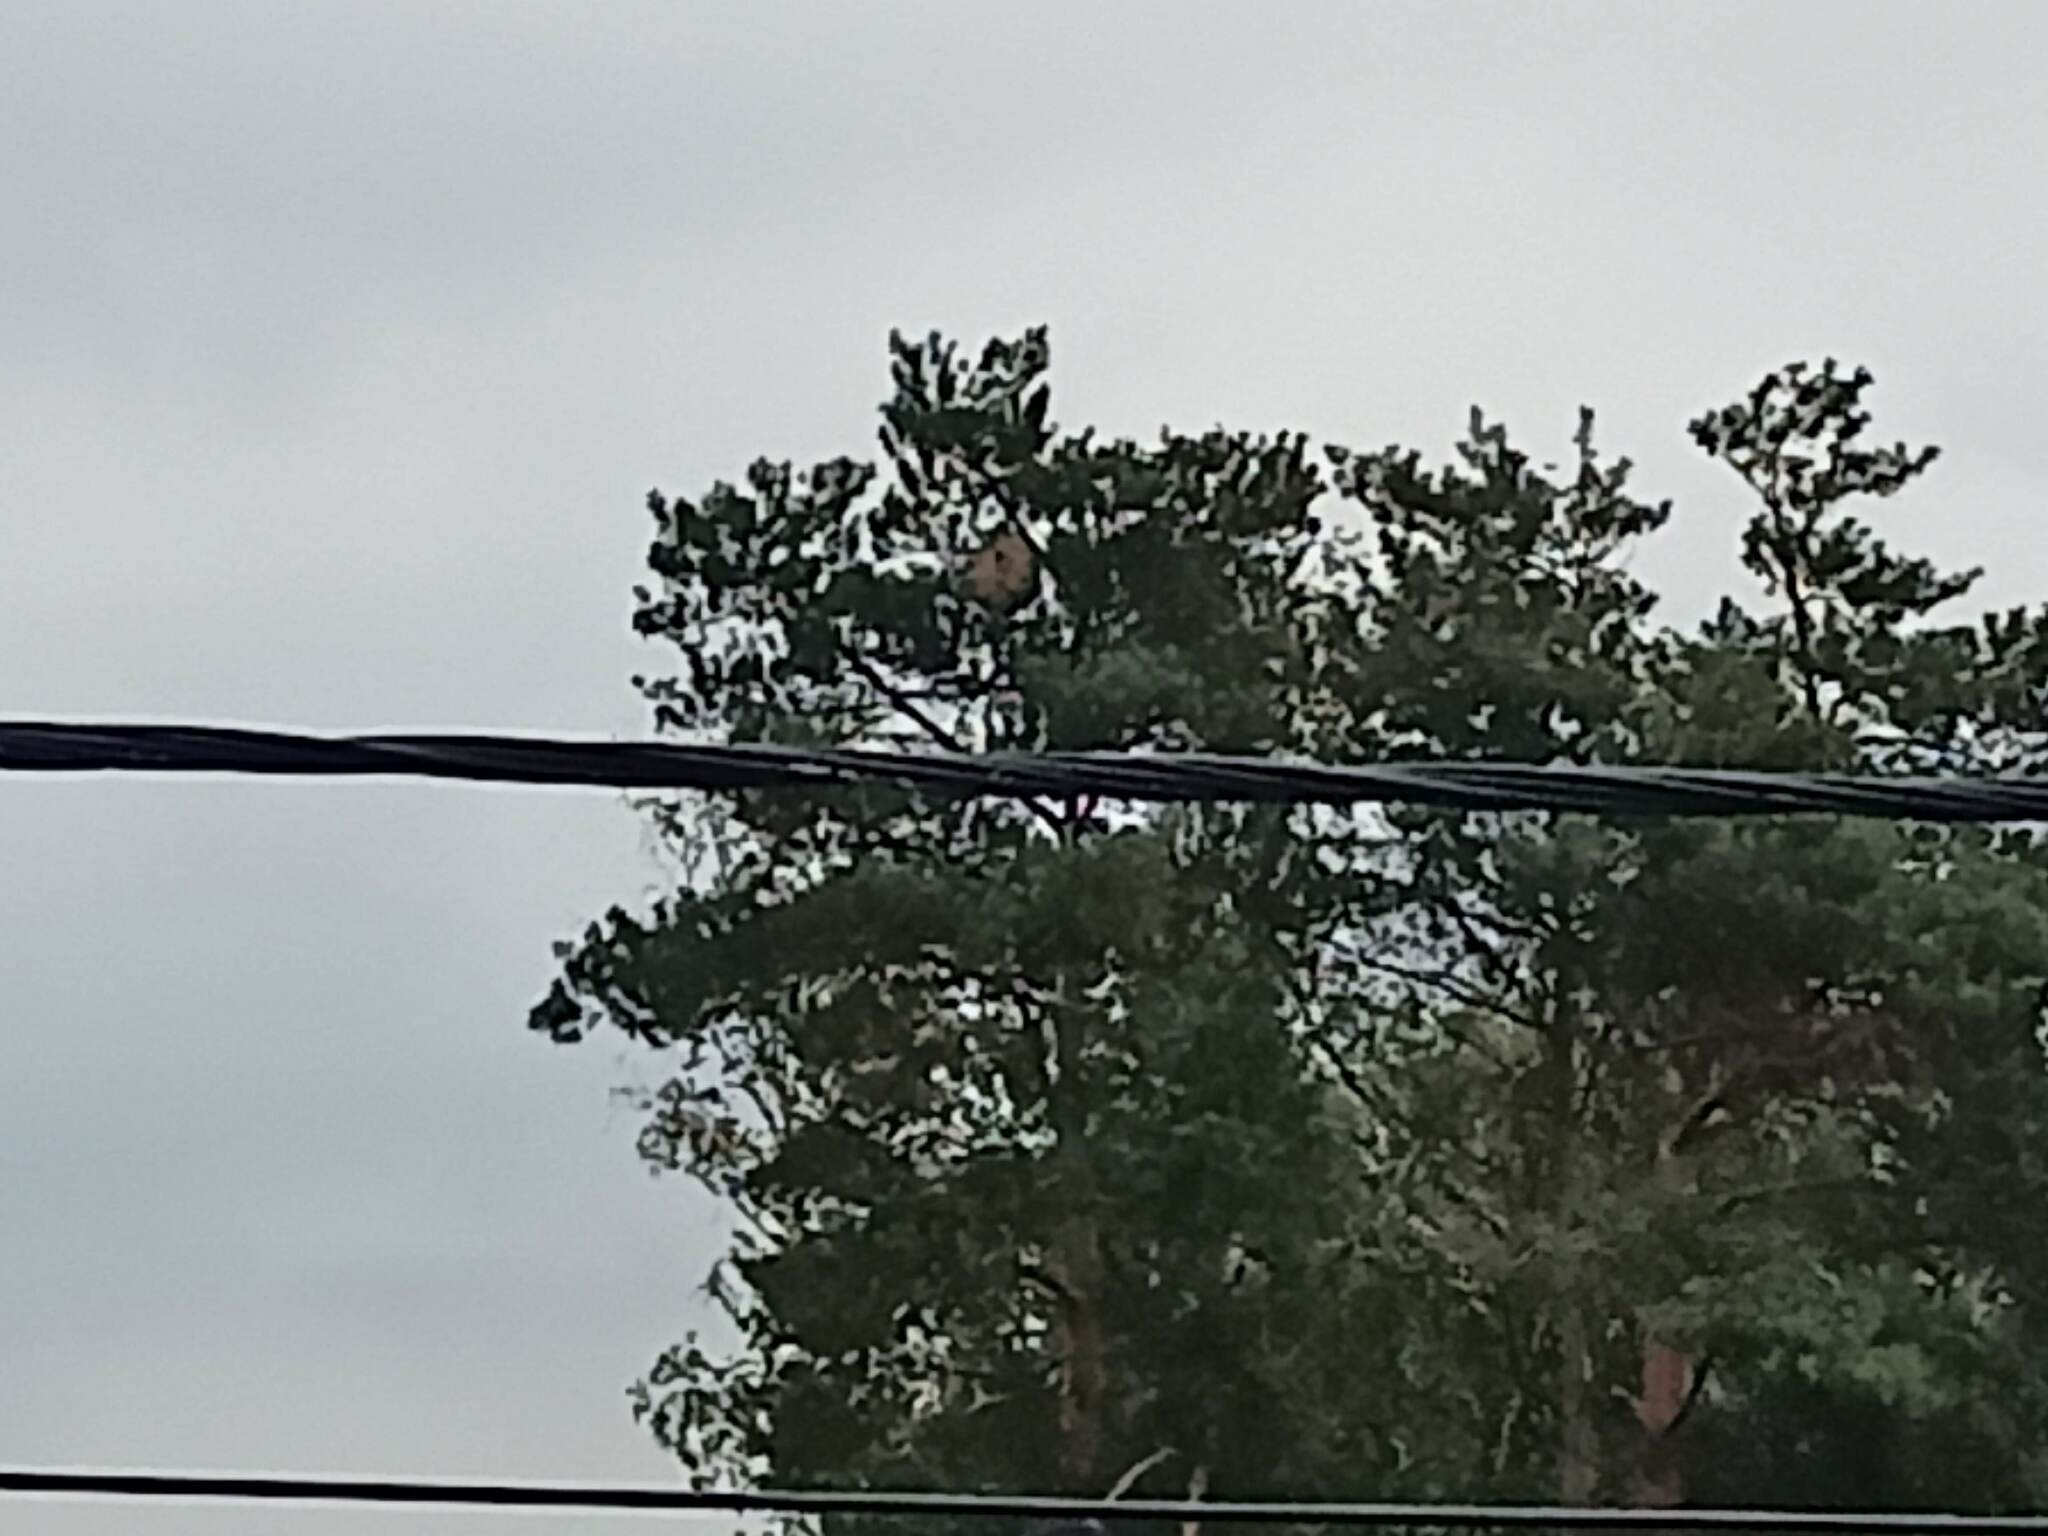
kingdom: Animalia
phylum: Arthropoda
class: Insecta
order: Hymenoptera
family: Vespidae
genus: Vespa
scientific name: Vespa velutina
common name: Asian hornet
